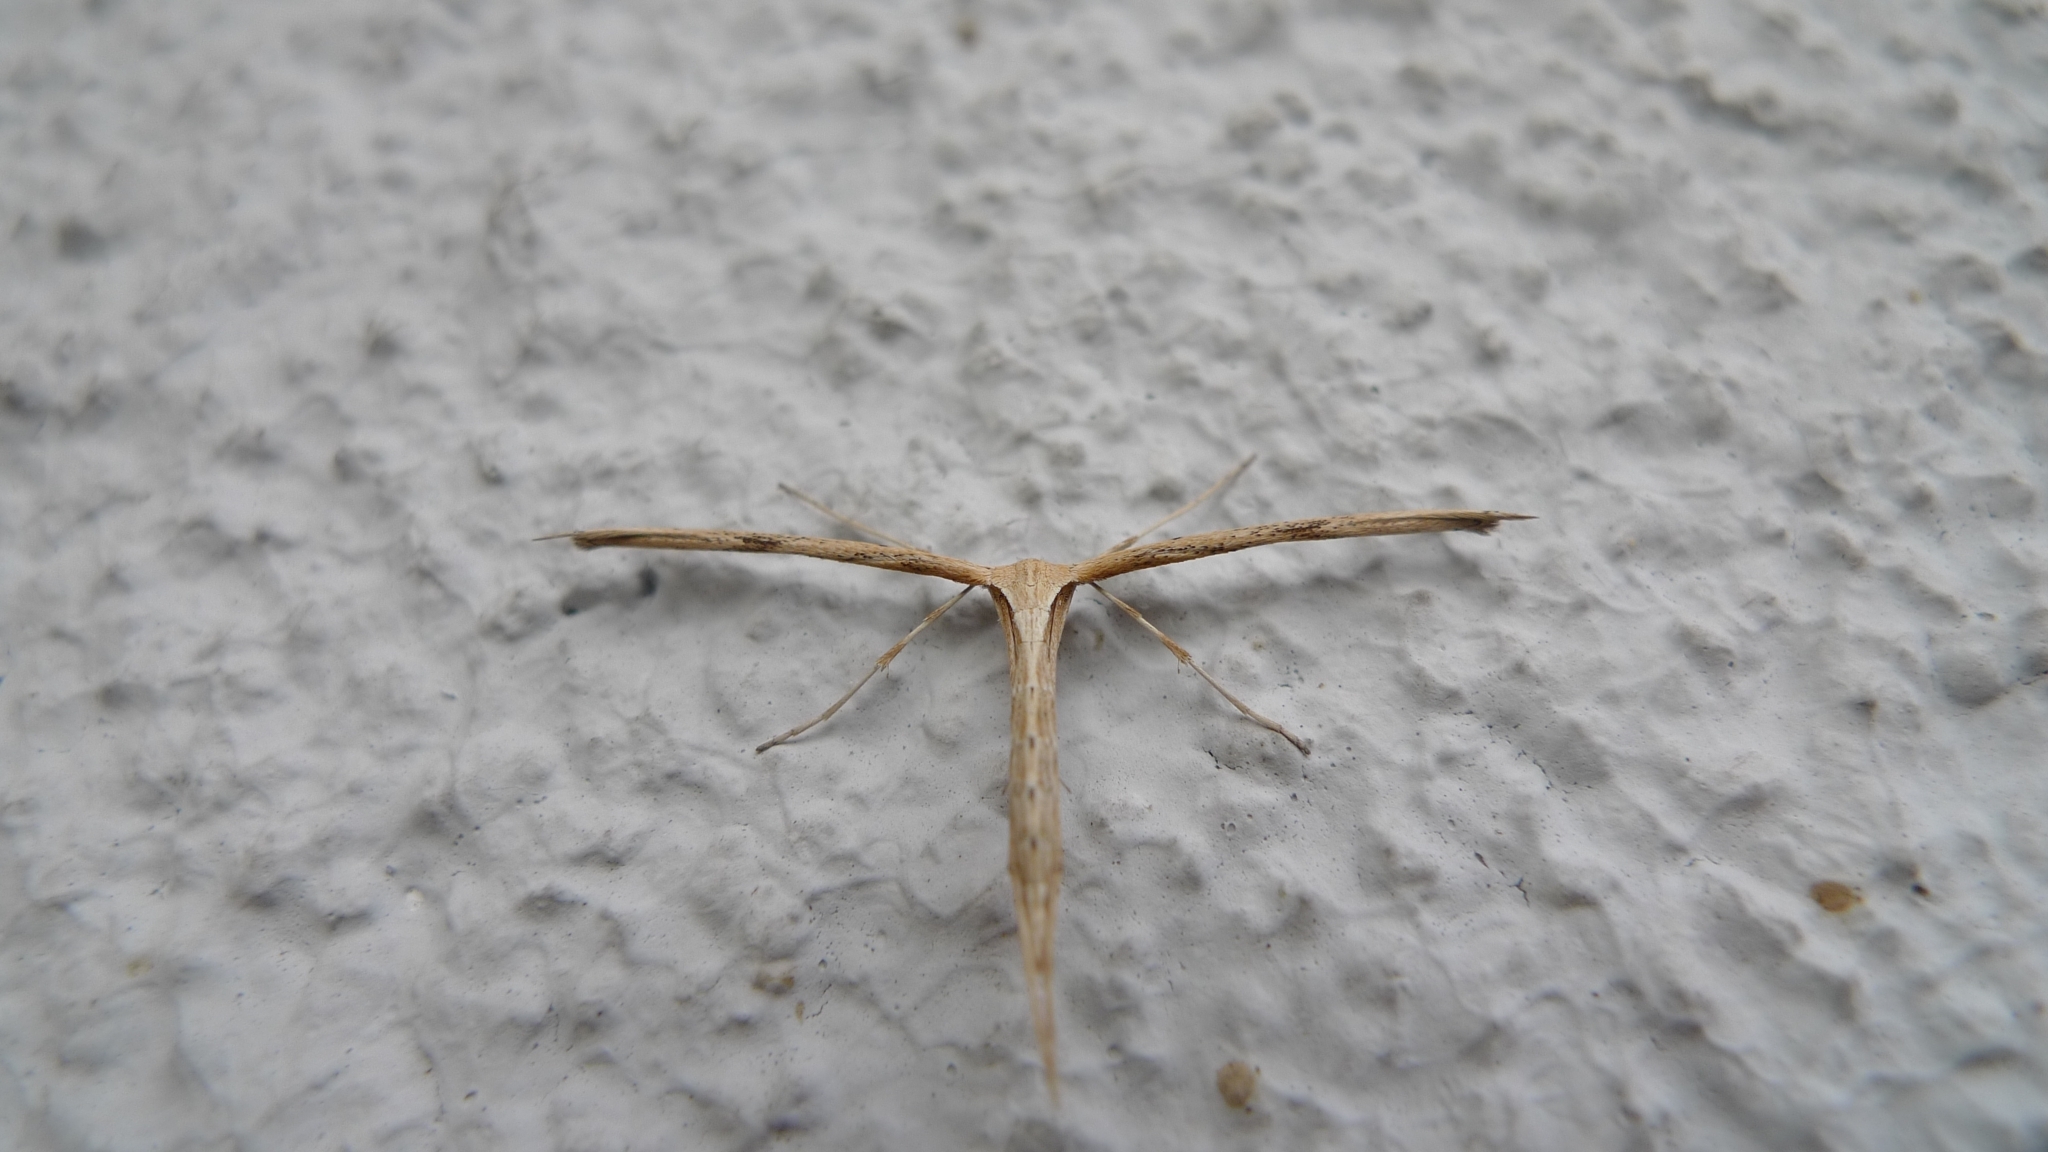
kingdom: Animalia
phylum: Arthropoda
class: Insecta
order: Lepidoptera
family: Pterophoridae
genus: Emmelina
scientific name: Emmelina monodactyla
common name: Common plume
